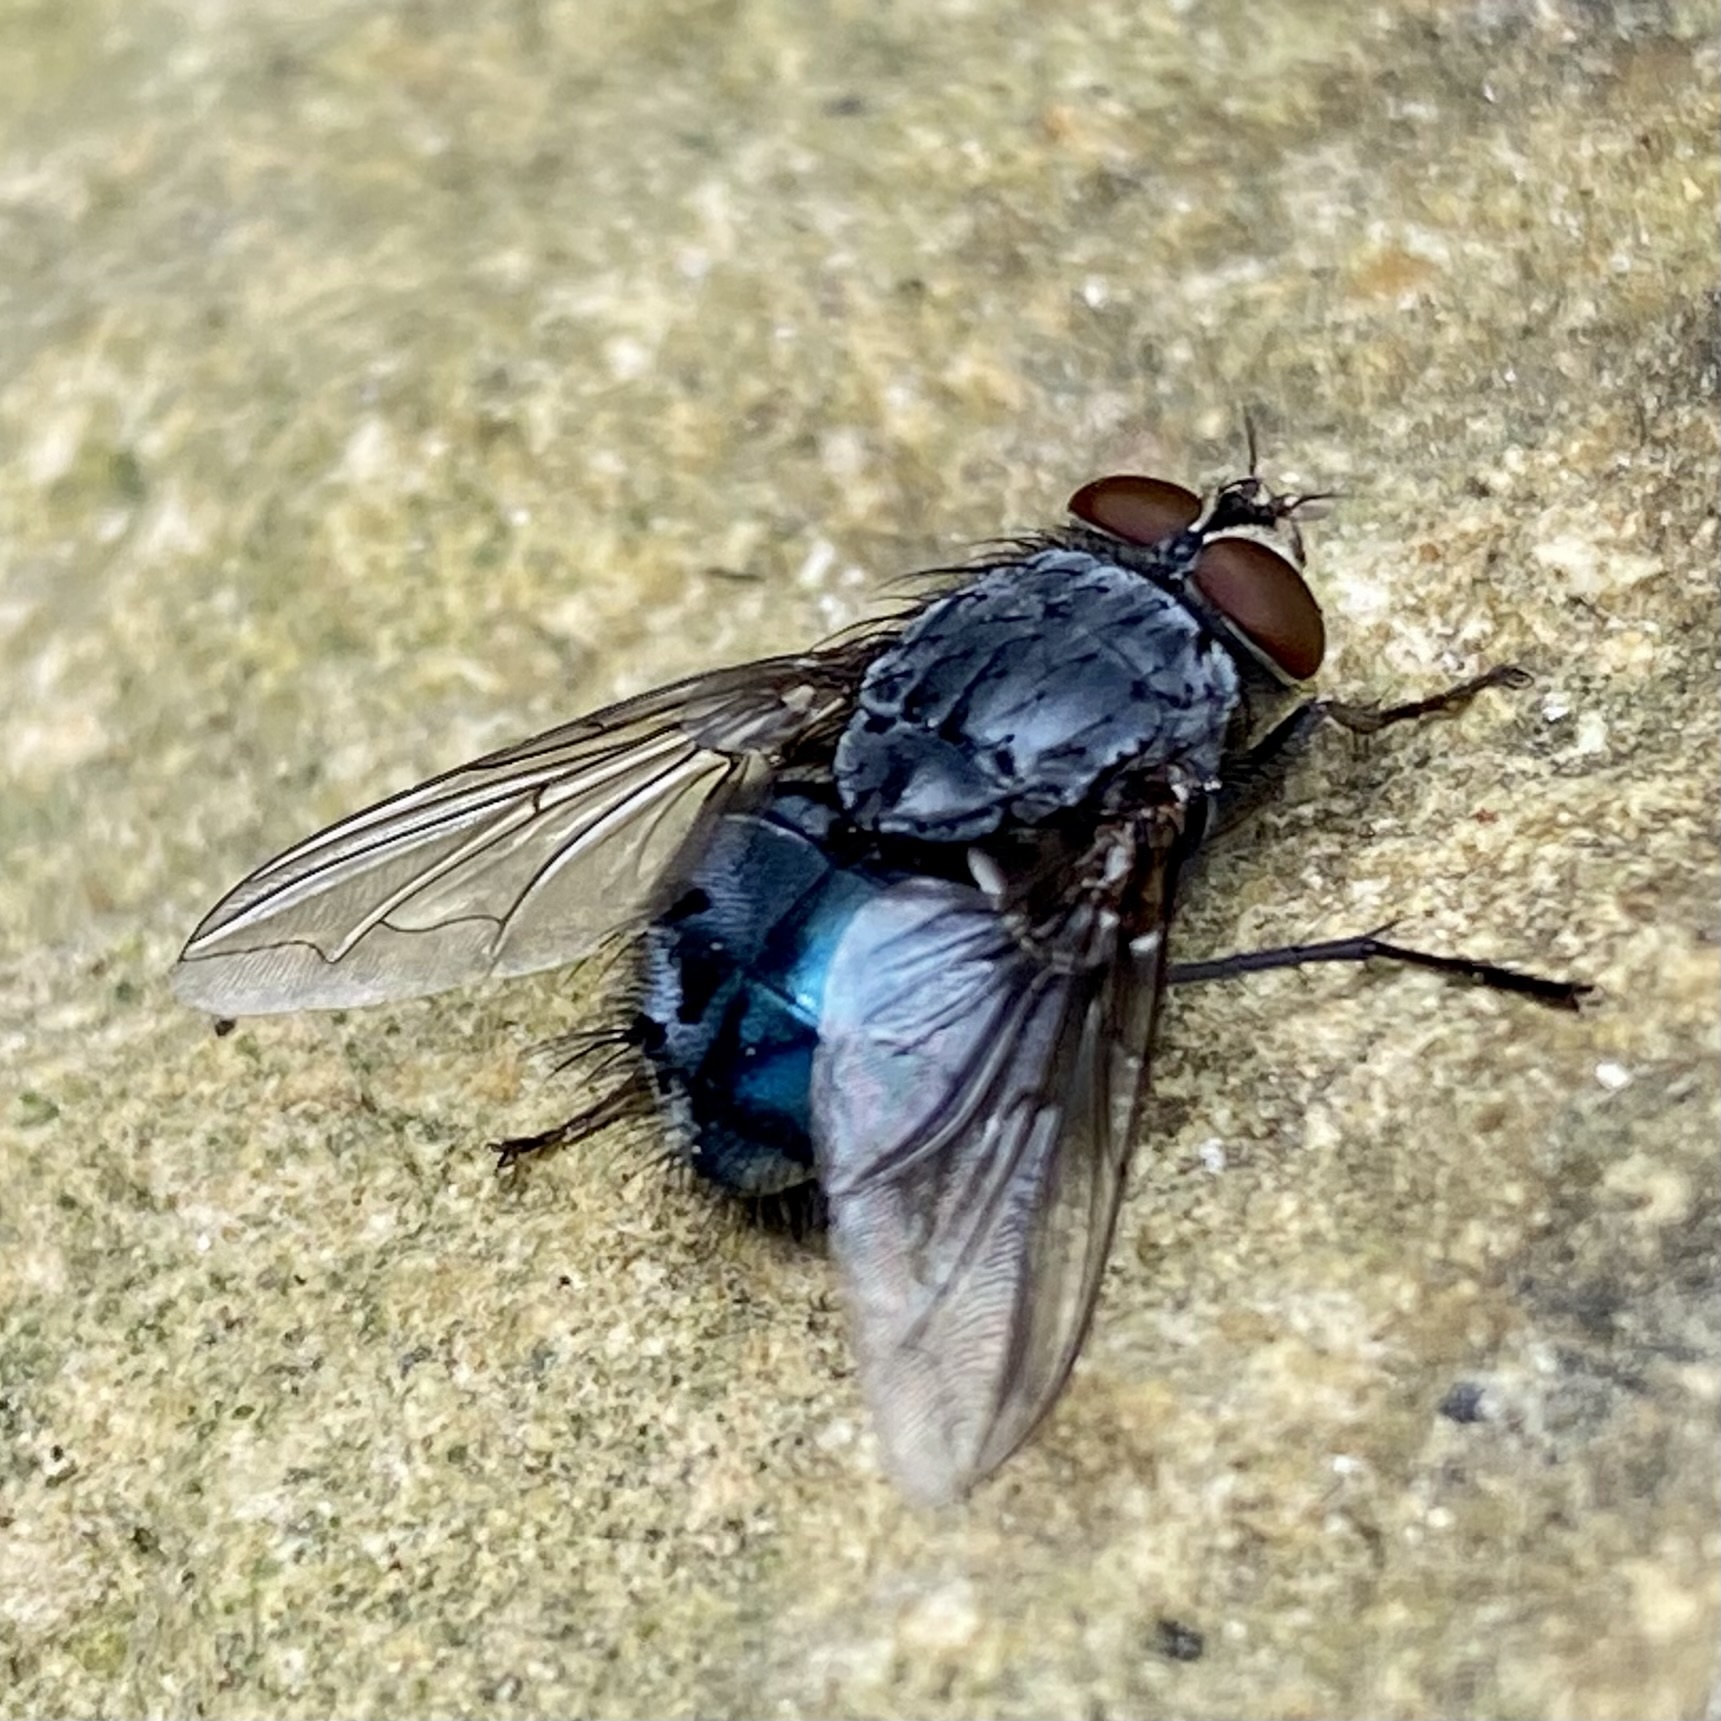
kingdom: Animalia
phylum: Arthropoda
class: Insecta
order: Diptera
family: Calliphoridae
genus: Calliphora
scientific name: Calliphora
